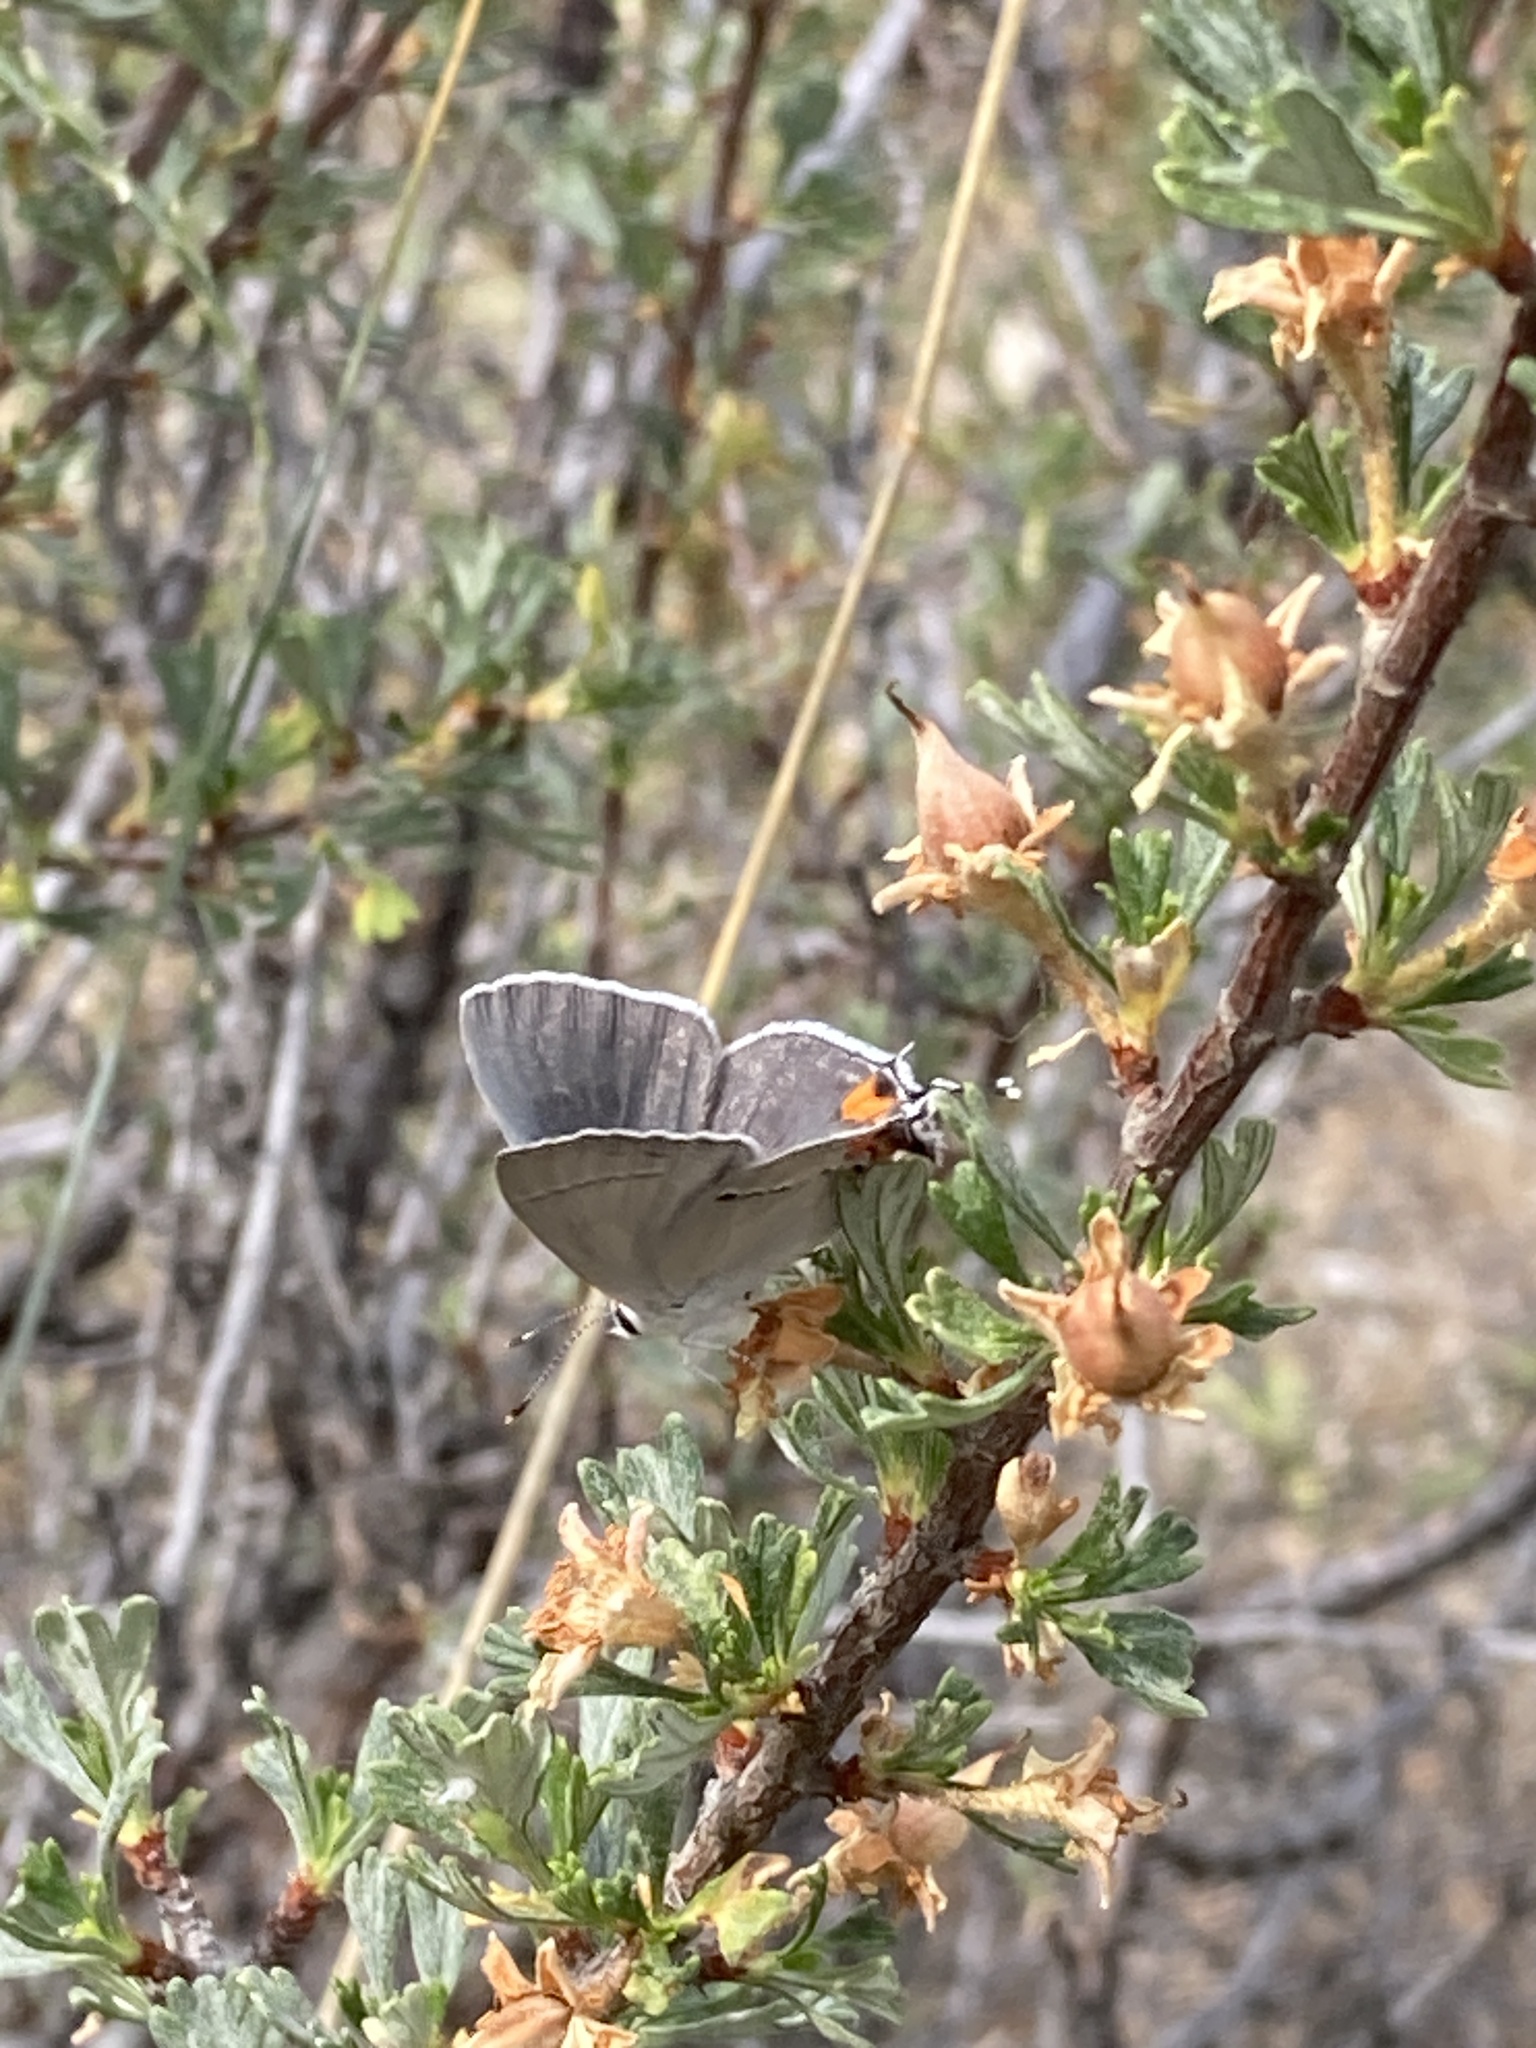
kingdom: Animalia
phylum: Arthropoda
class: Insecta
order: Lepidoptera
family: Lycaenidae
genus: Strymon
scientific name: Strymon melinus
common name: Gray hairstreak
